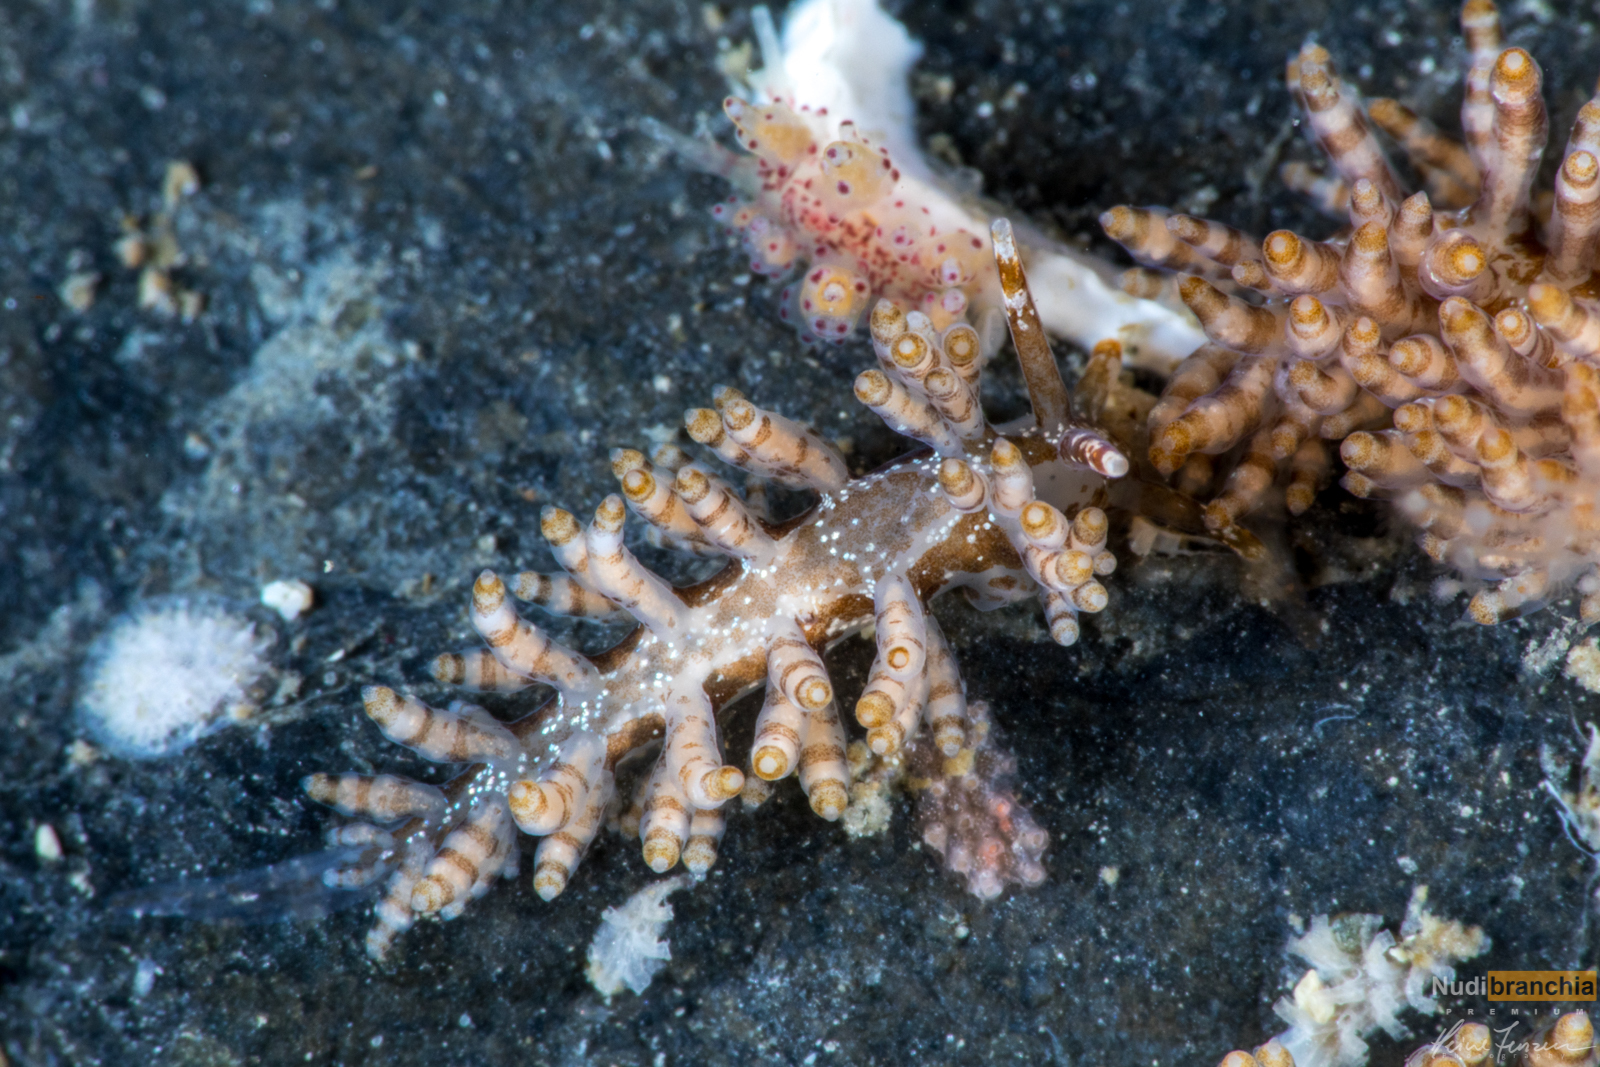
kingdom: Animalia
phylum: Mollusca
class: Gastropoda
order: Nudibranchia
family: Eubranchidae
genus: Eubranchus
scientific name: Eubranchus vittatus
